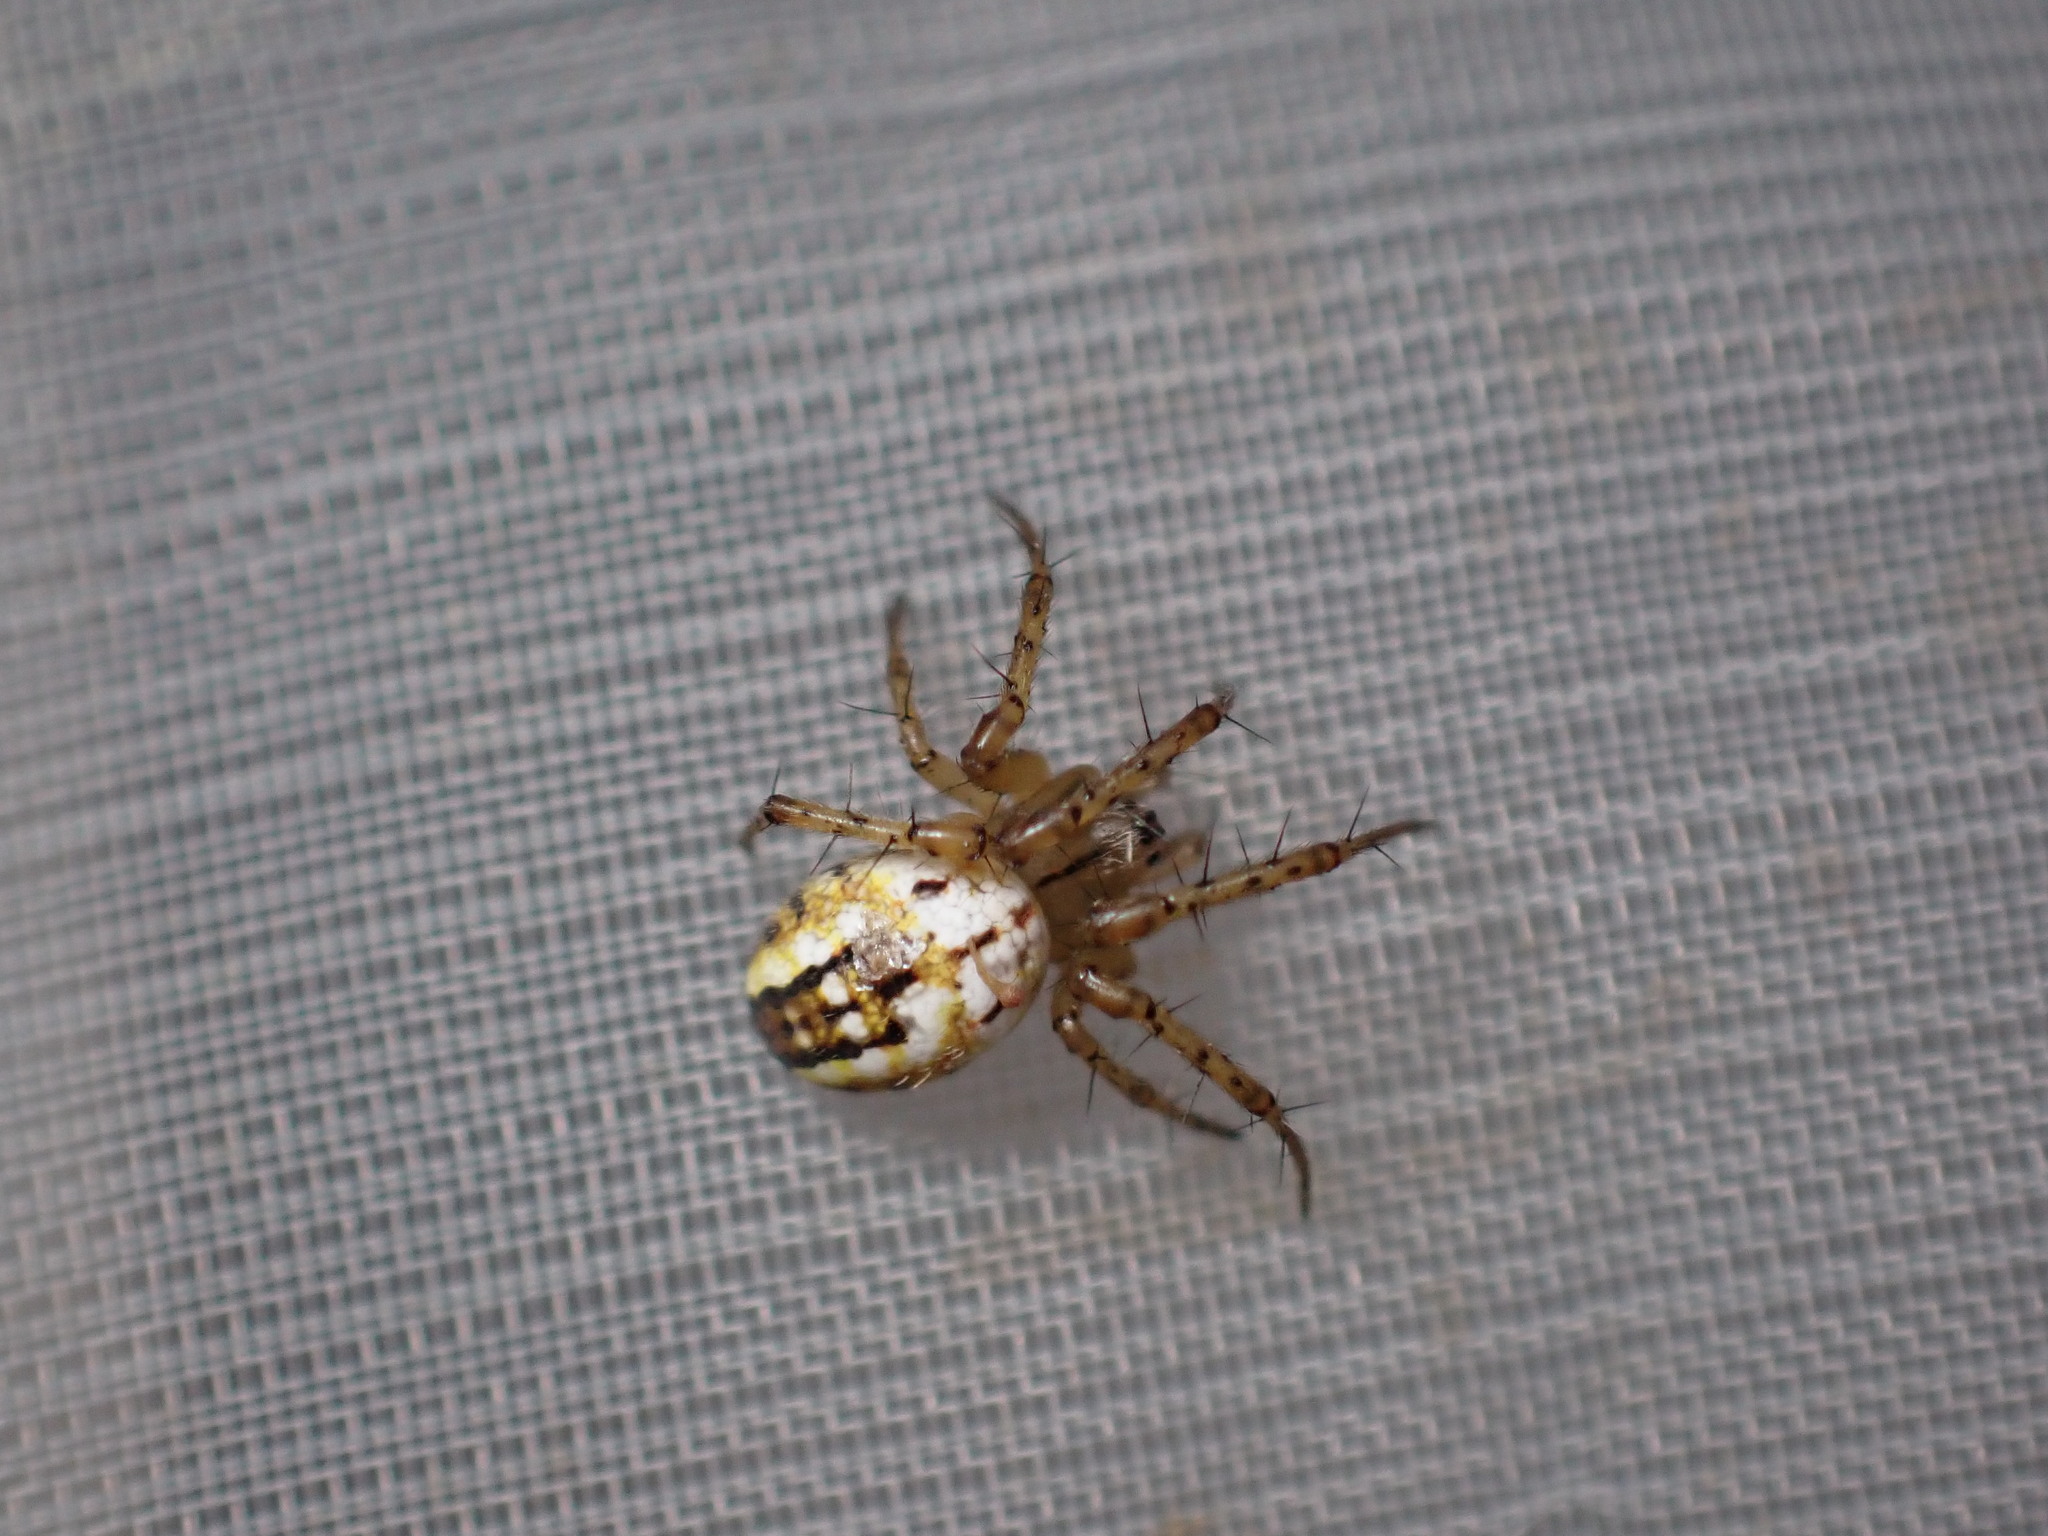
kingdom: Animalia
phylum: Arthropoda
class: Arachnida
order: Araneae
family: Araneidae
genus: Mangora
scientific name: Mangora acalypha
